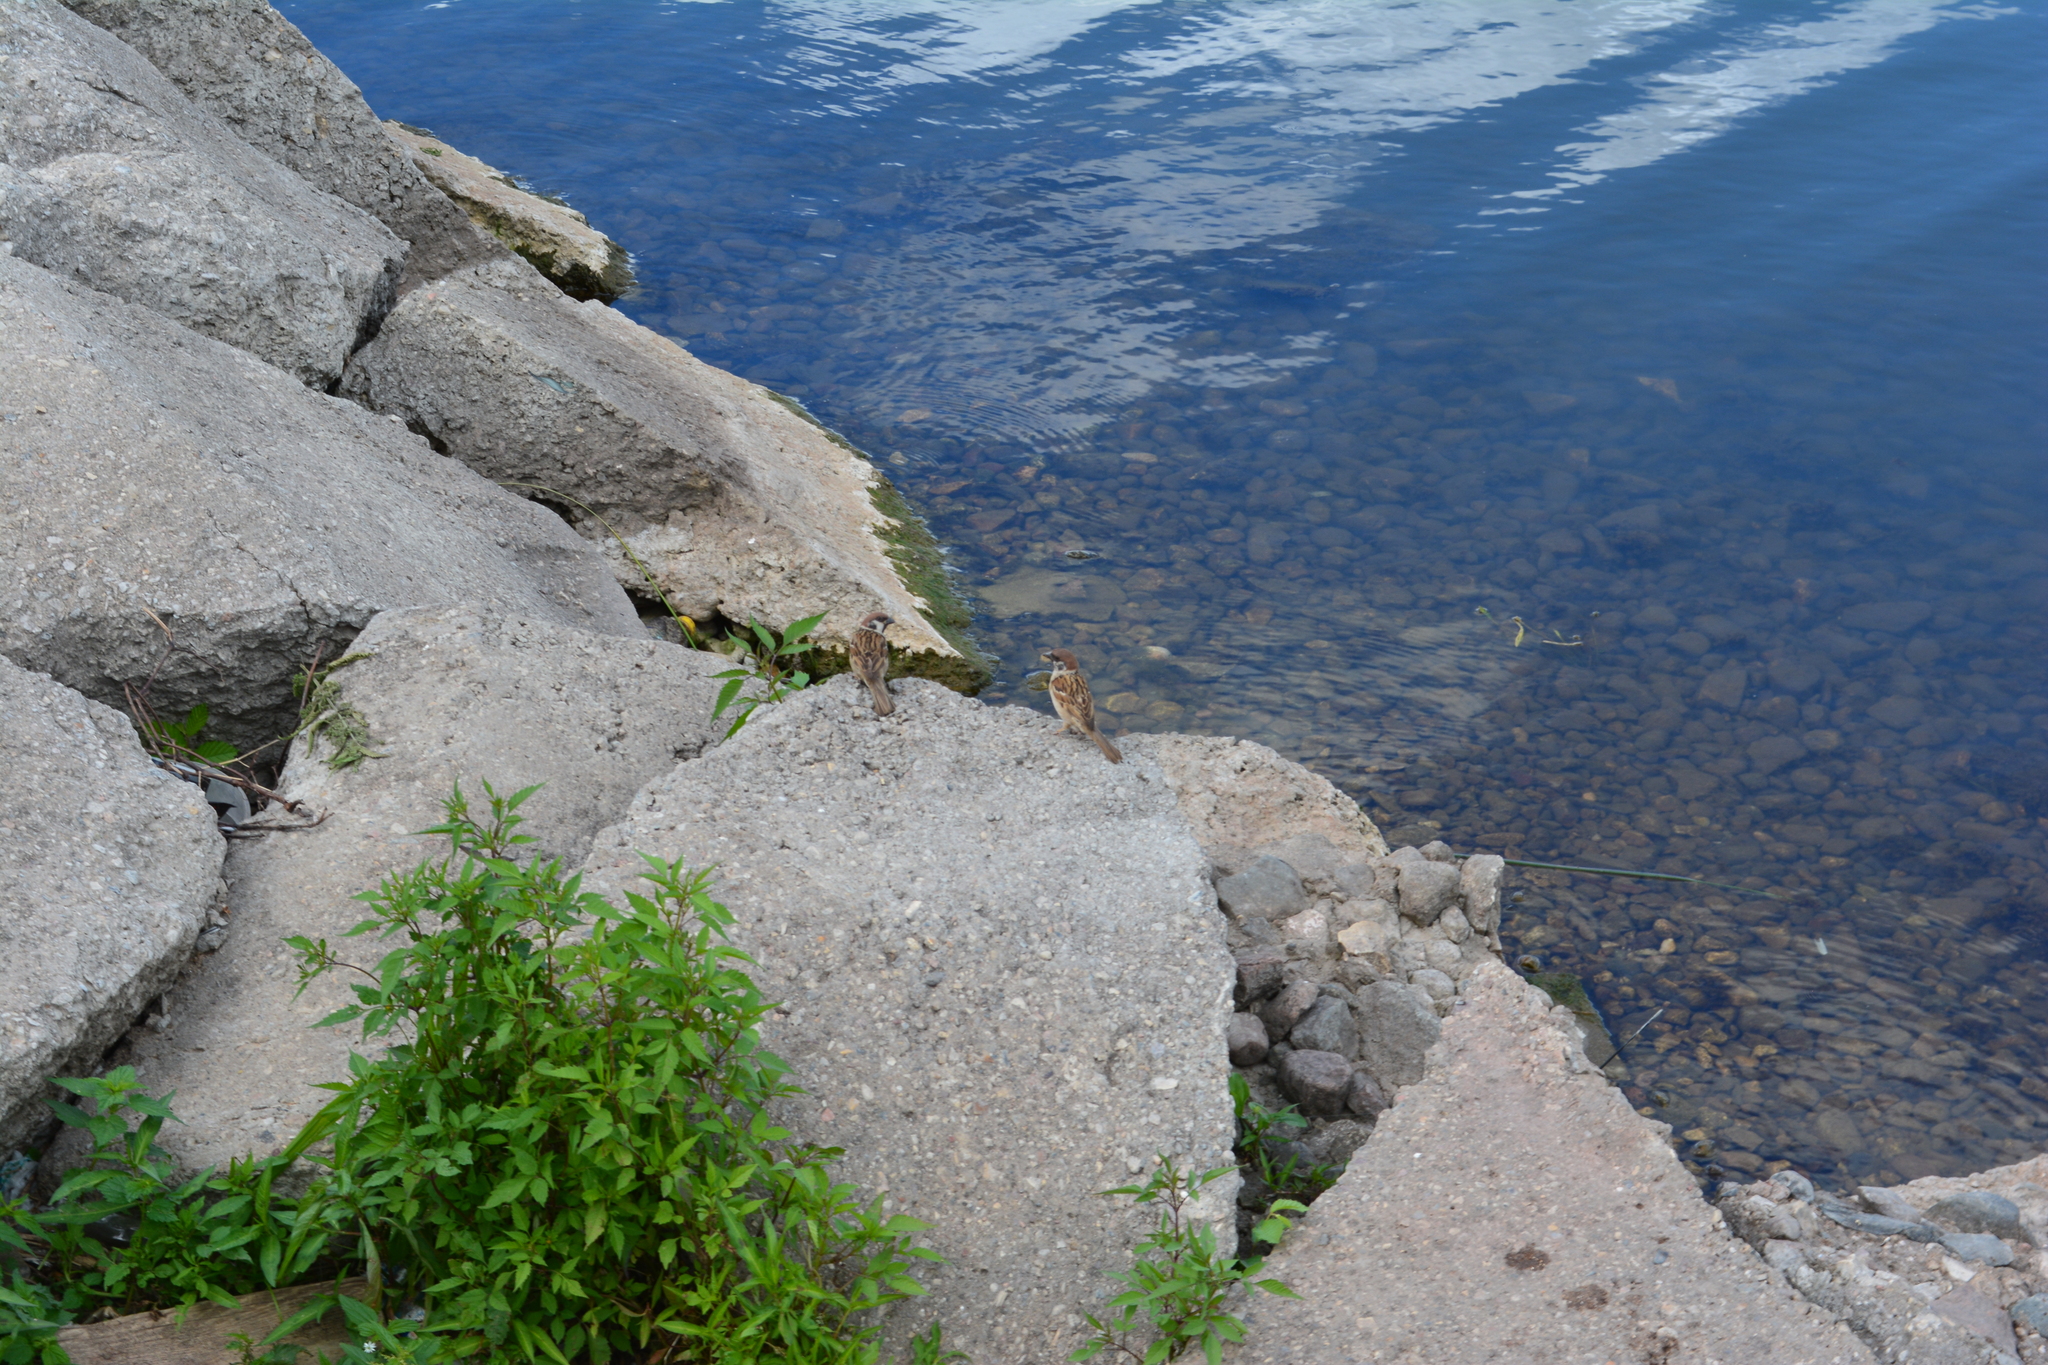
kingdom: Animalia
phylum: Chordata
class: Aves
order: Passeriformes
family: Passeridae
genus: Passer
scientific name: Passer montanus
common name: Eurasian tree sparrow
